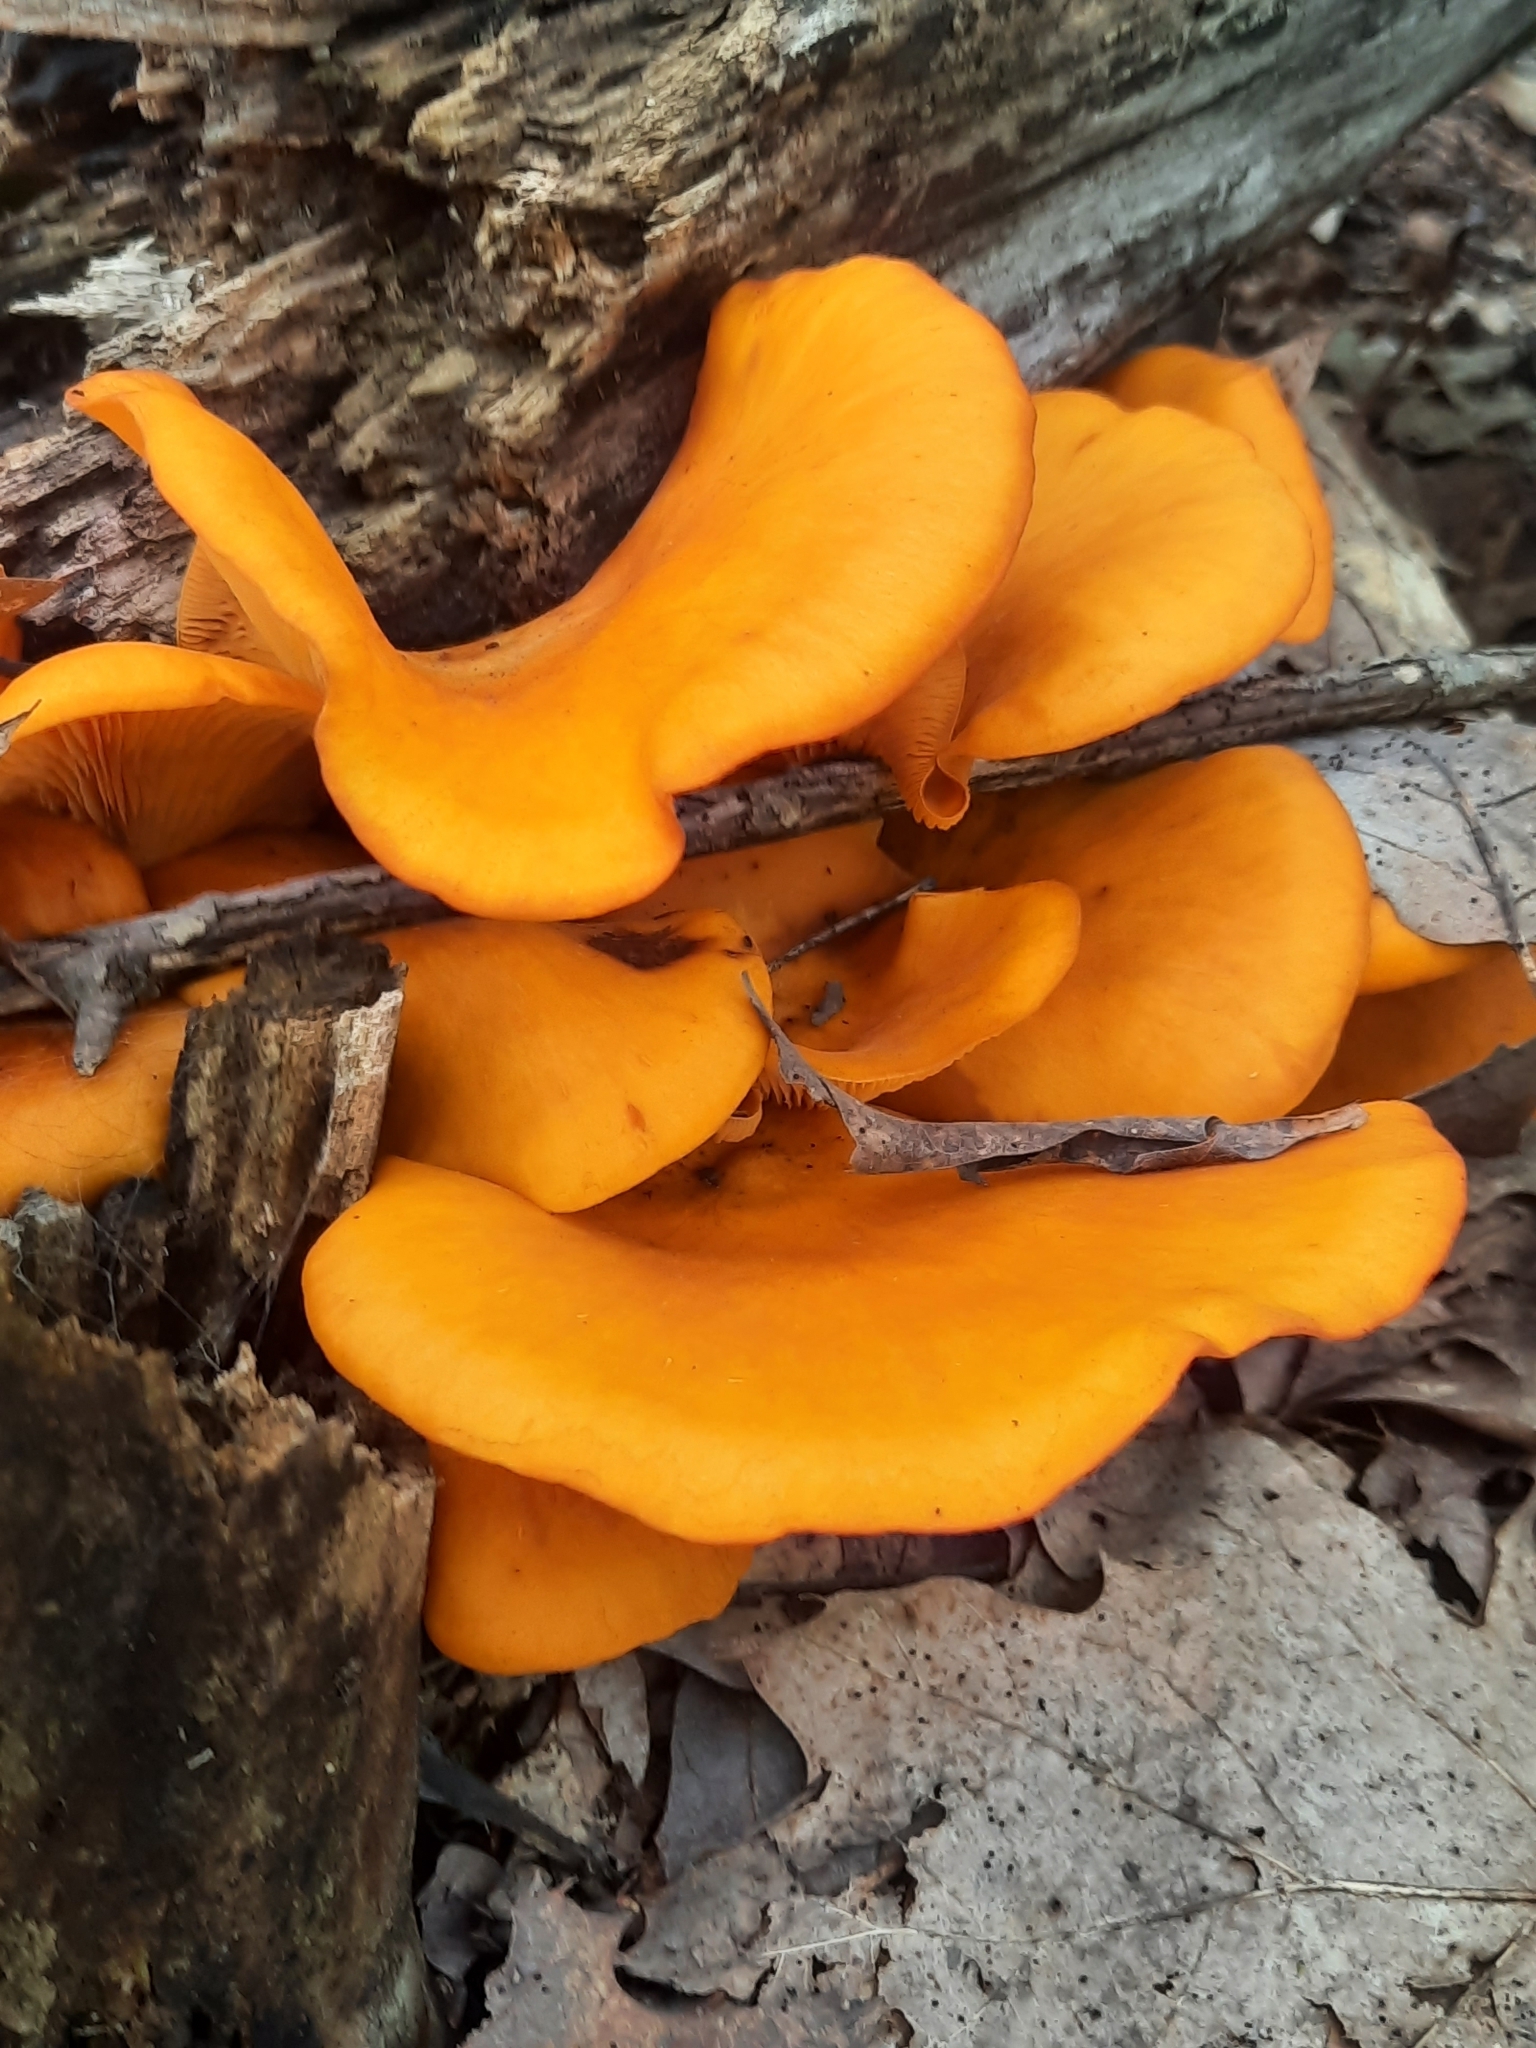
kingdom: Fungi
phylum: Basidiomycota
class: Agaricomycetes
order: Agaricales
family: Omphalotaceae
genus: Omphalotus
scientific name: Omphalotus illudens
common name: Jack o lantern
